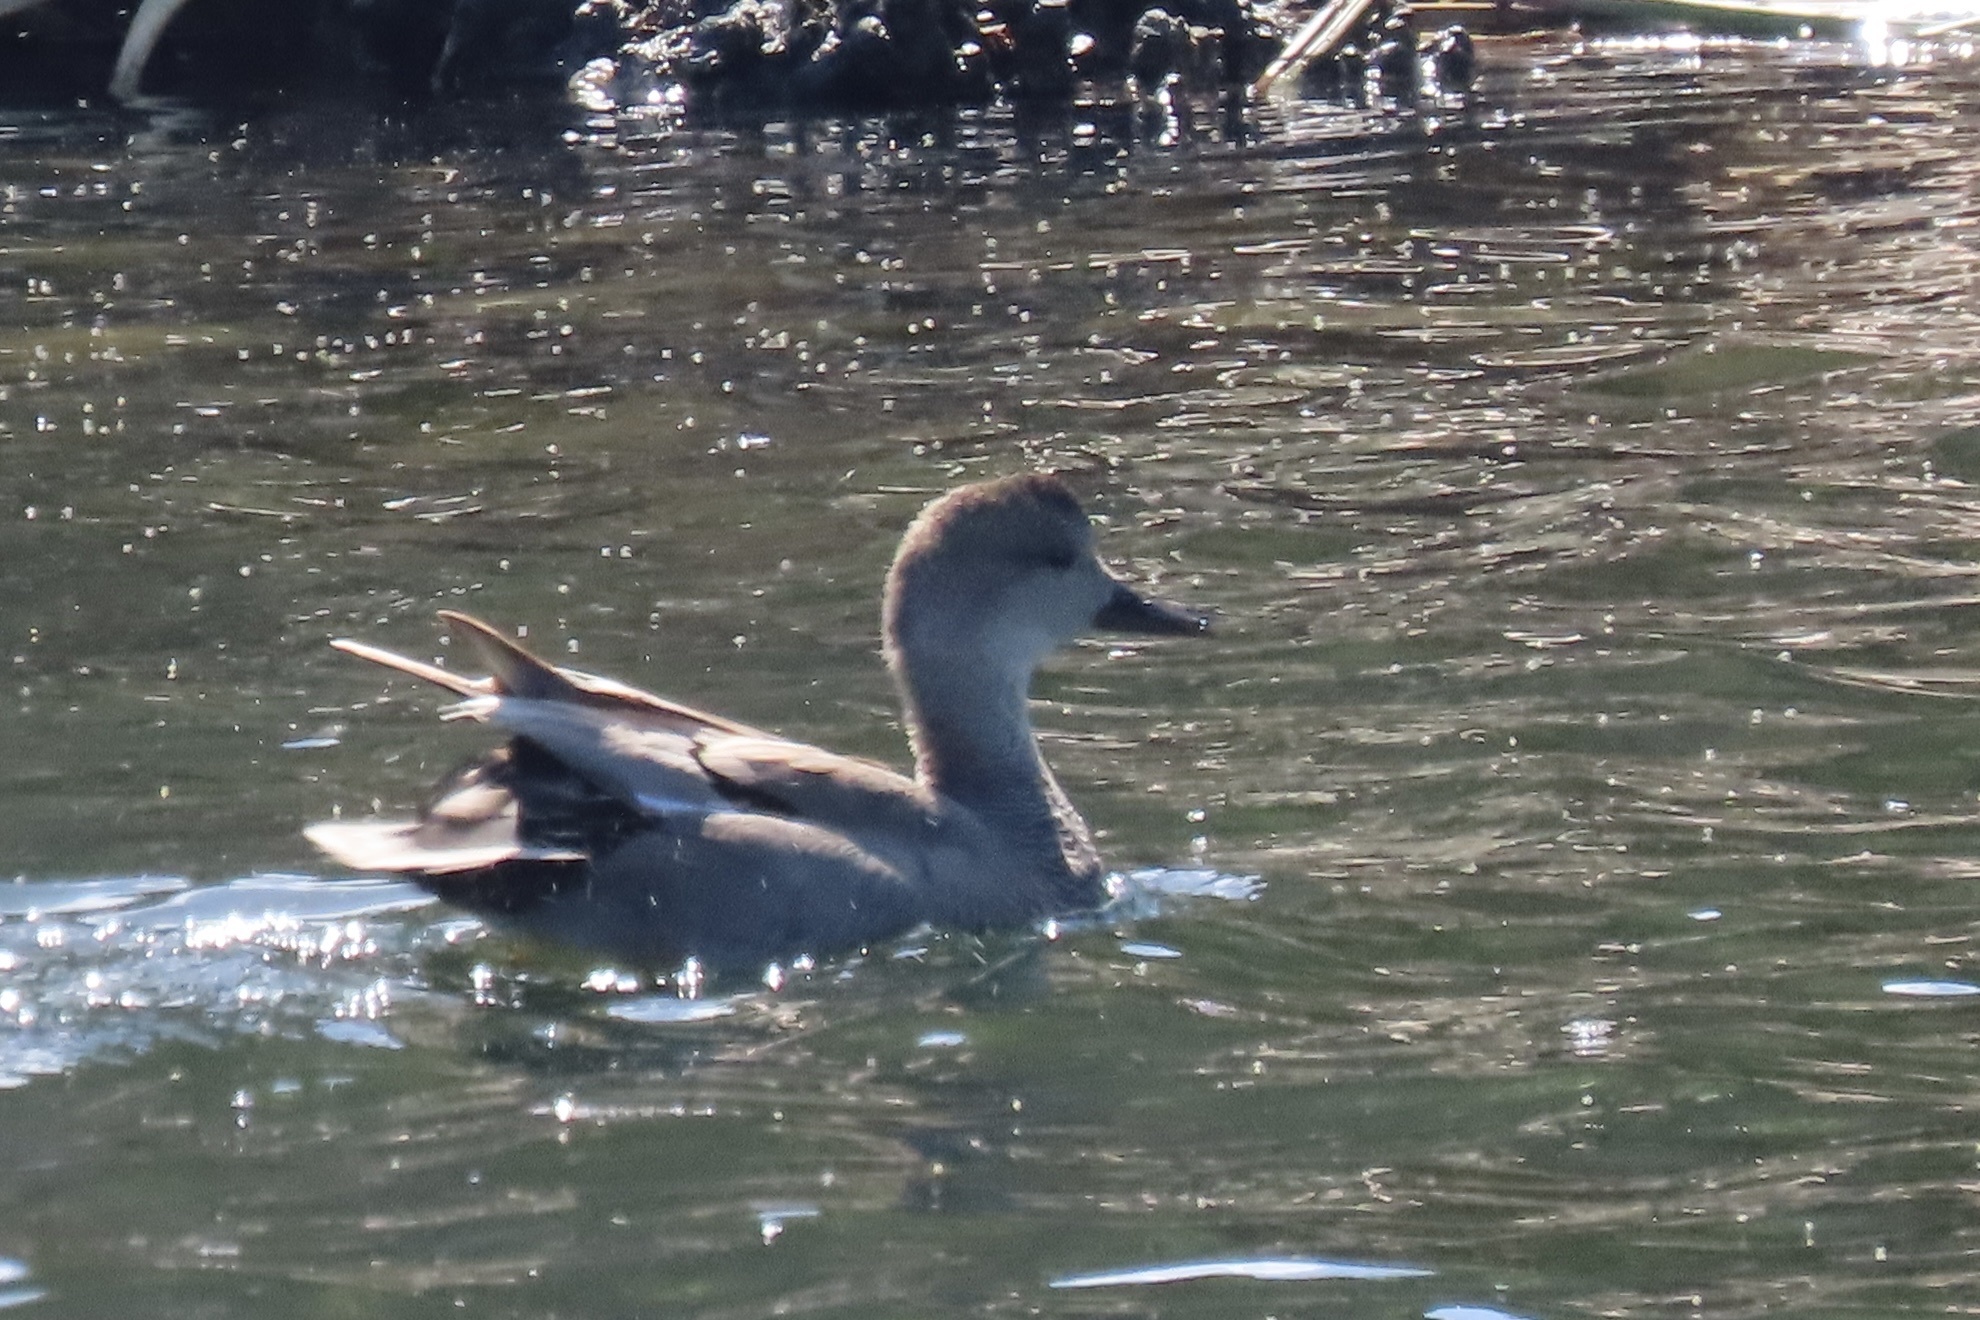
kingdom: Animalia
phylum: Chordata
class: Aves
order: Anseriformes
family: Anatidae
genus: Mareca
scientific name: Mareca strepera
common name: Gadwall
